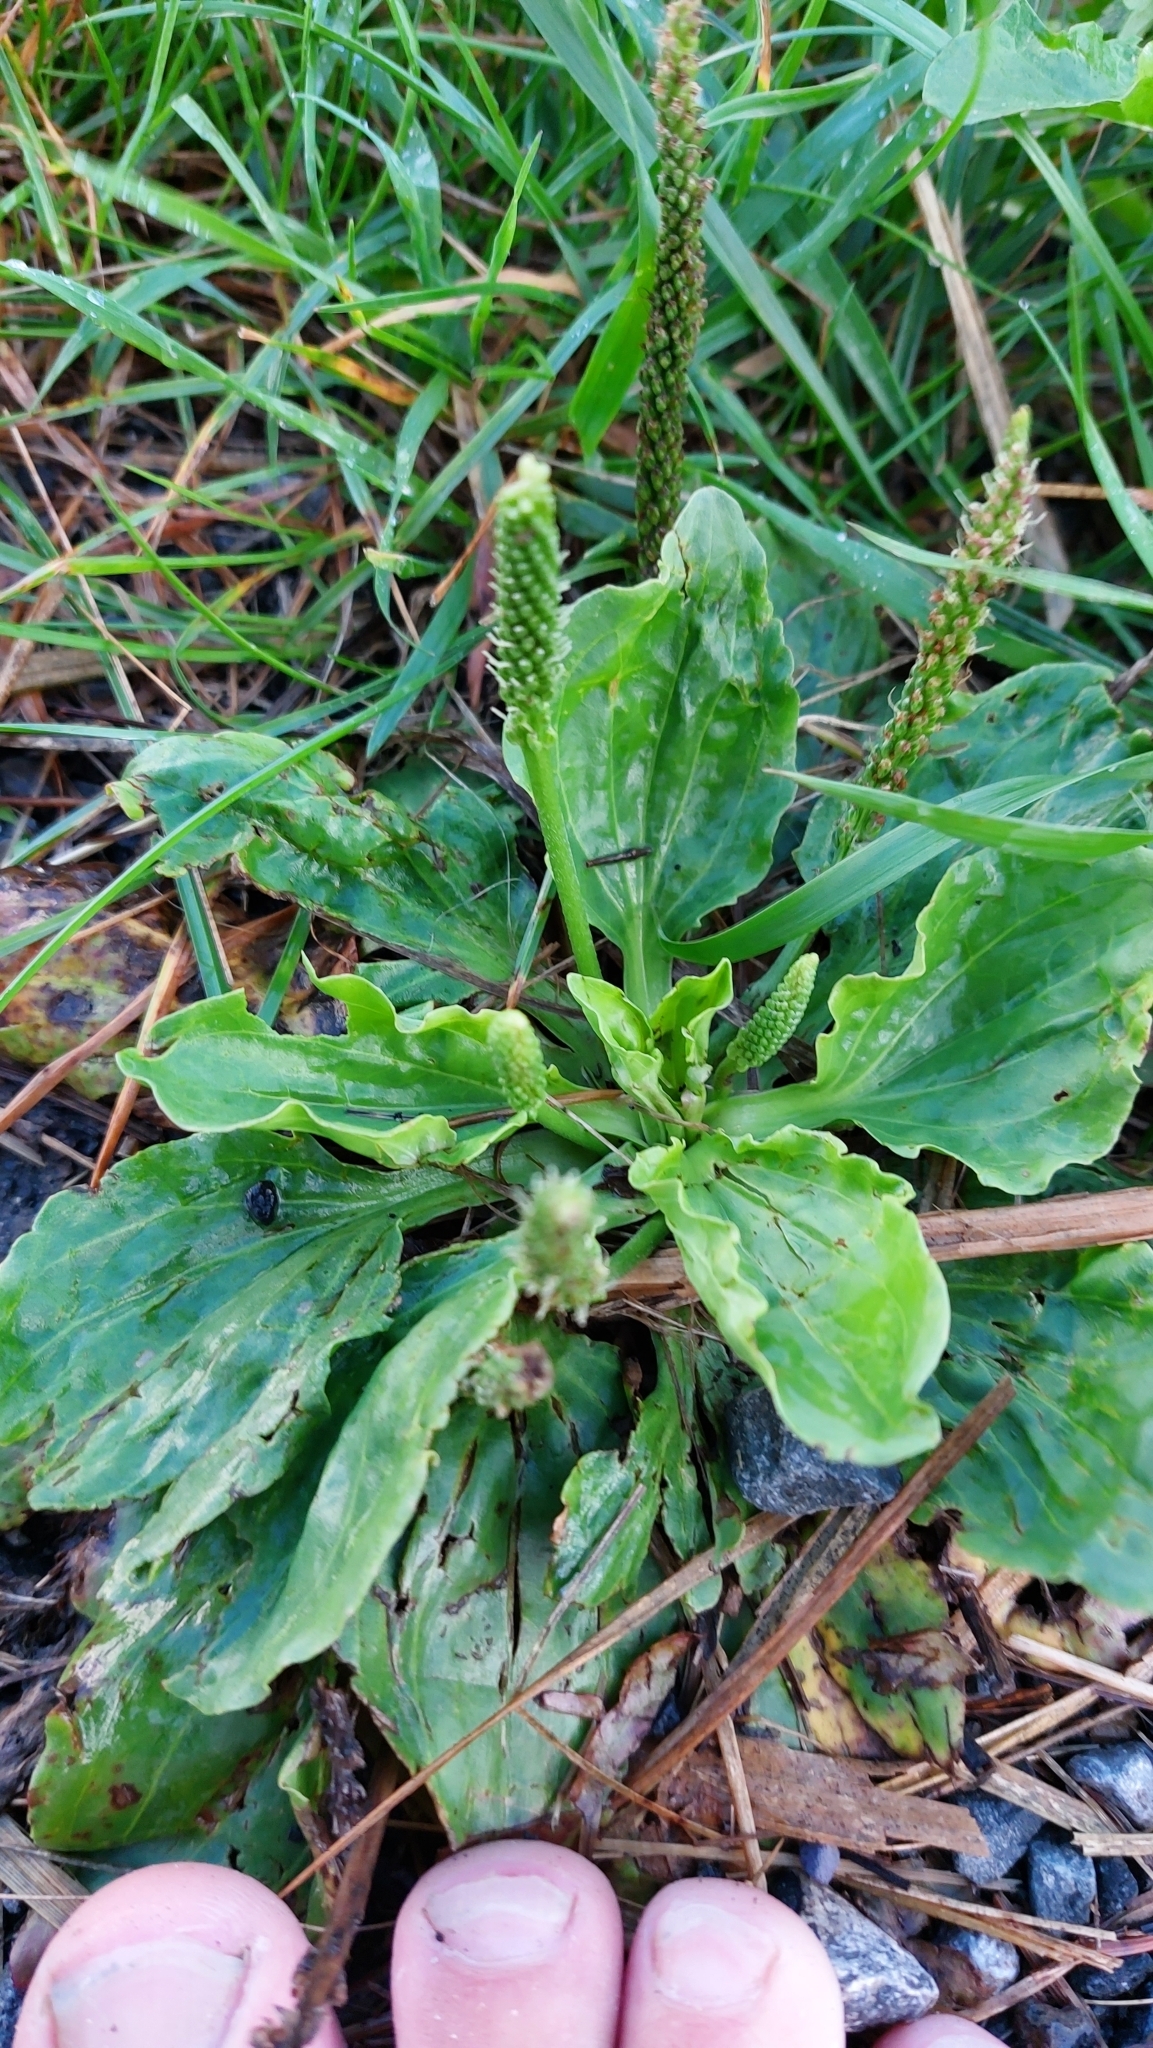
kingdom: Plantae
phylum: Tracheophyta
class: Magnoliopsida
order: Lamiales
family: Plantaginaceae
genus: Plantago
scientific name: Plantago major
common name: Common plantain
